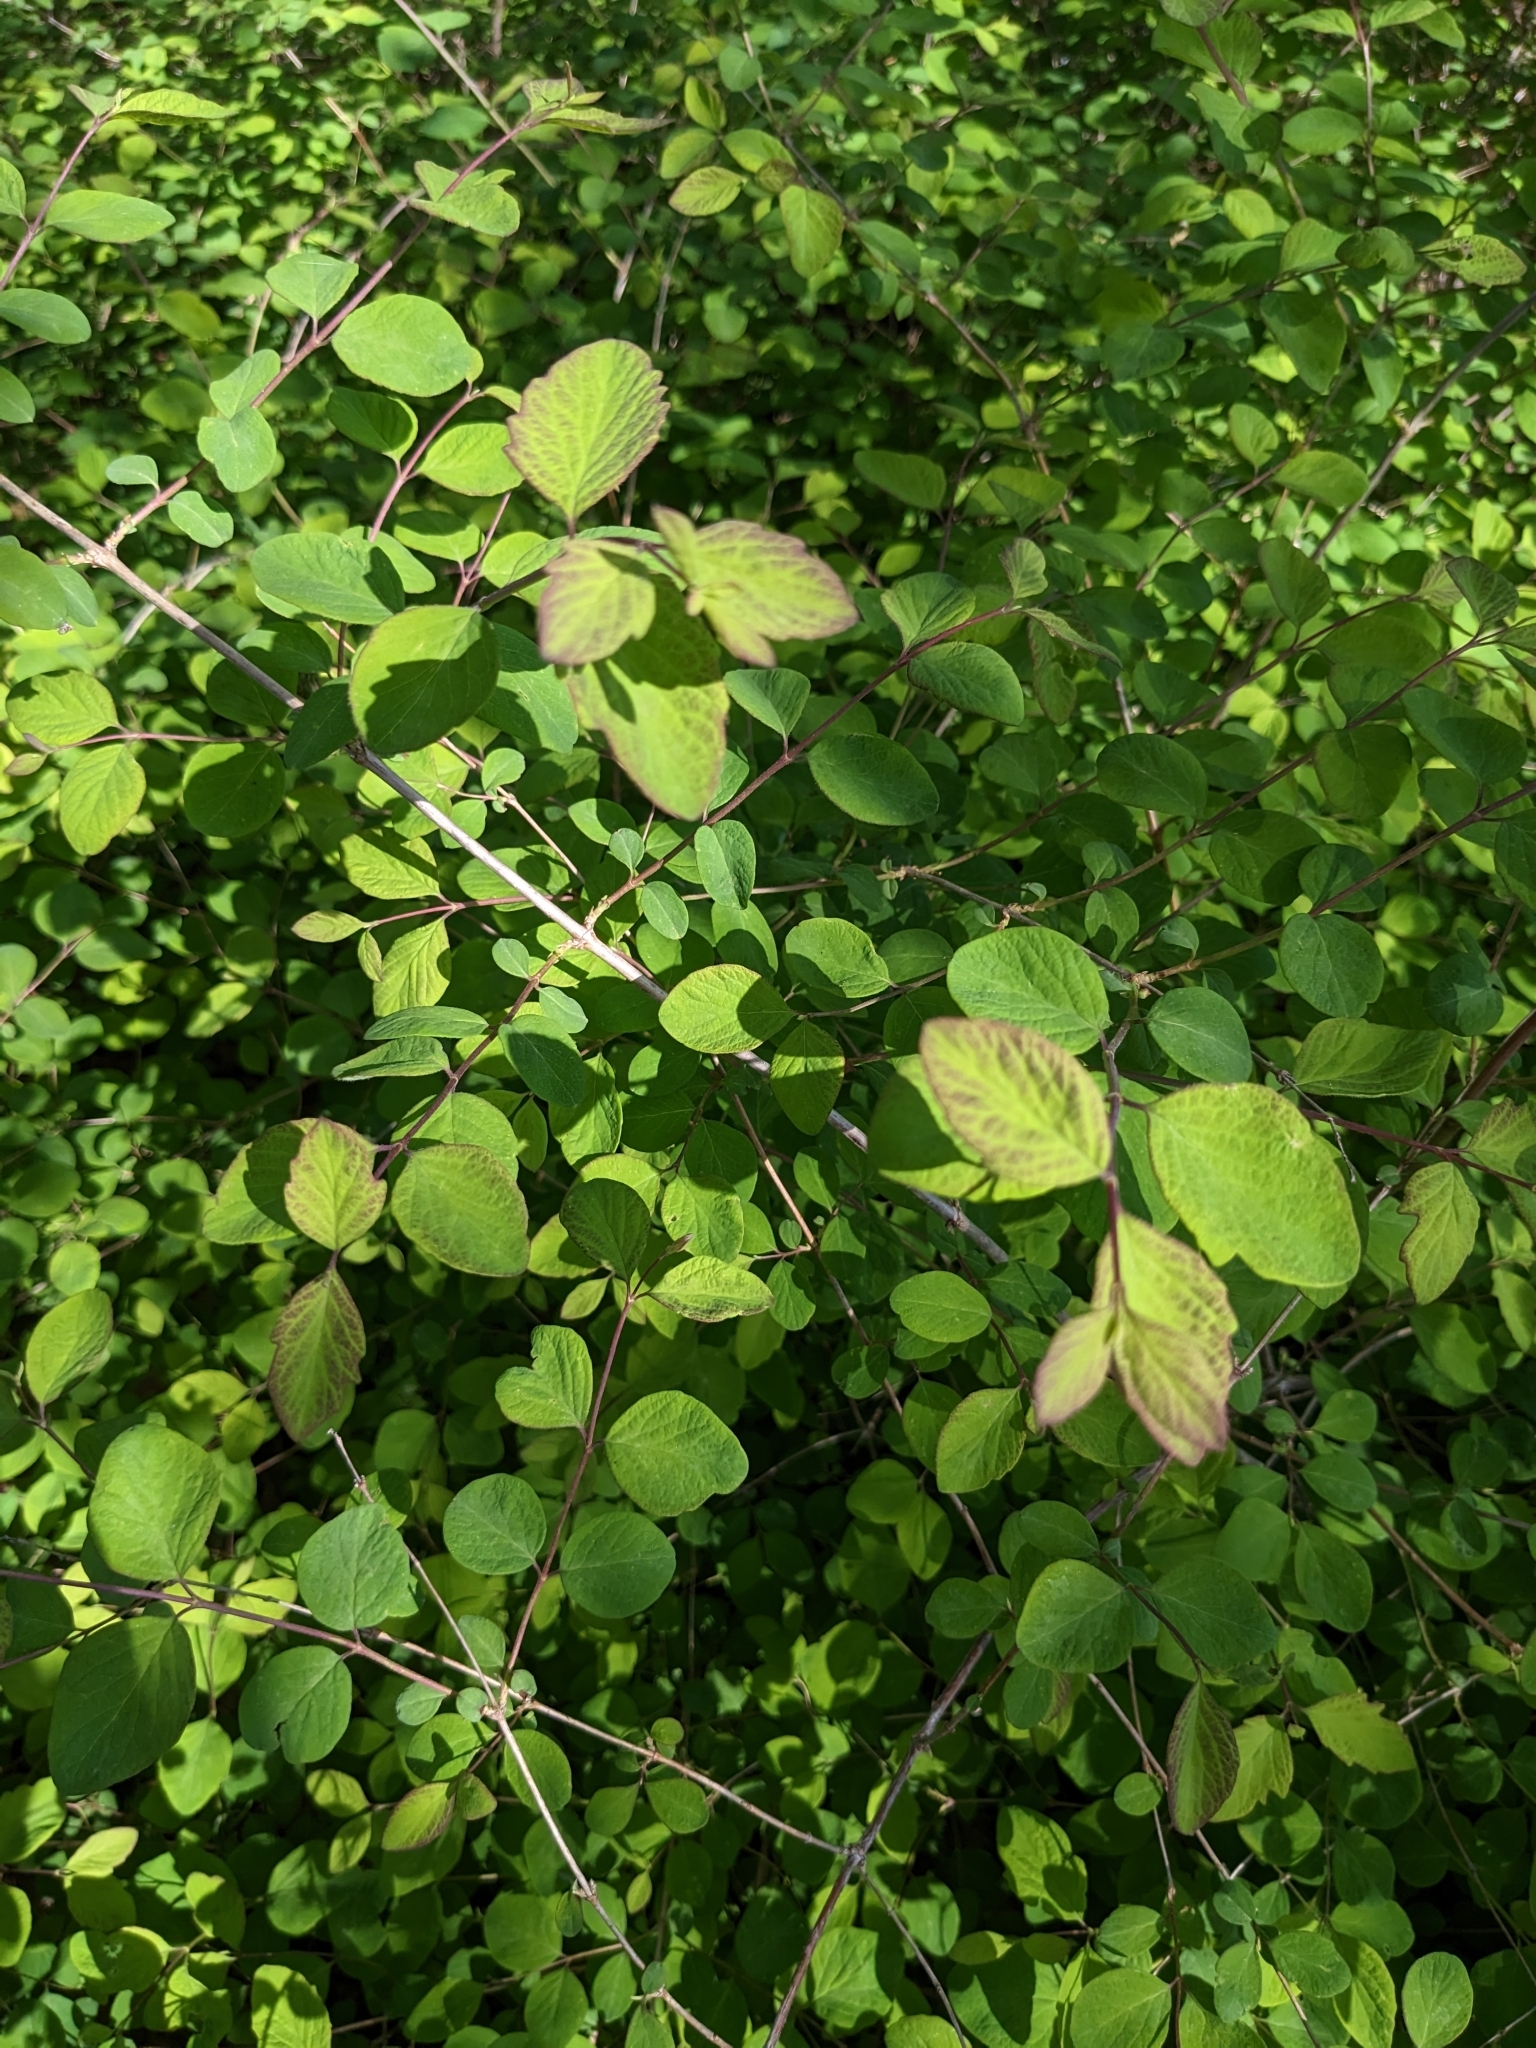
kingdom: Plantae
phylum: Tracheophyta
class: Magnoliopsida
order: Dipsacales
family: Caprifoliaceae
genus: Symphoricarpos
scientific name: Symphoricarpos albus
